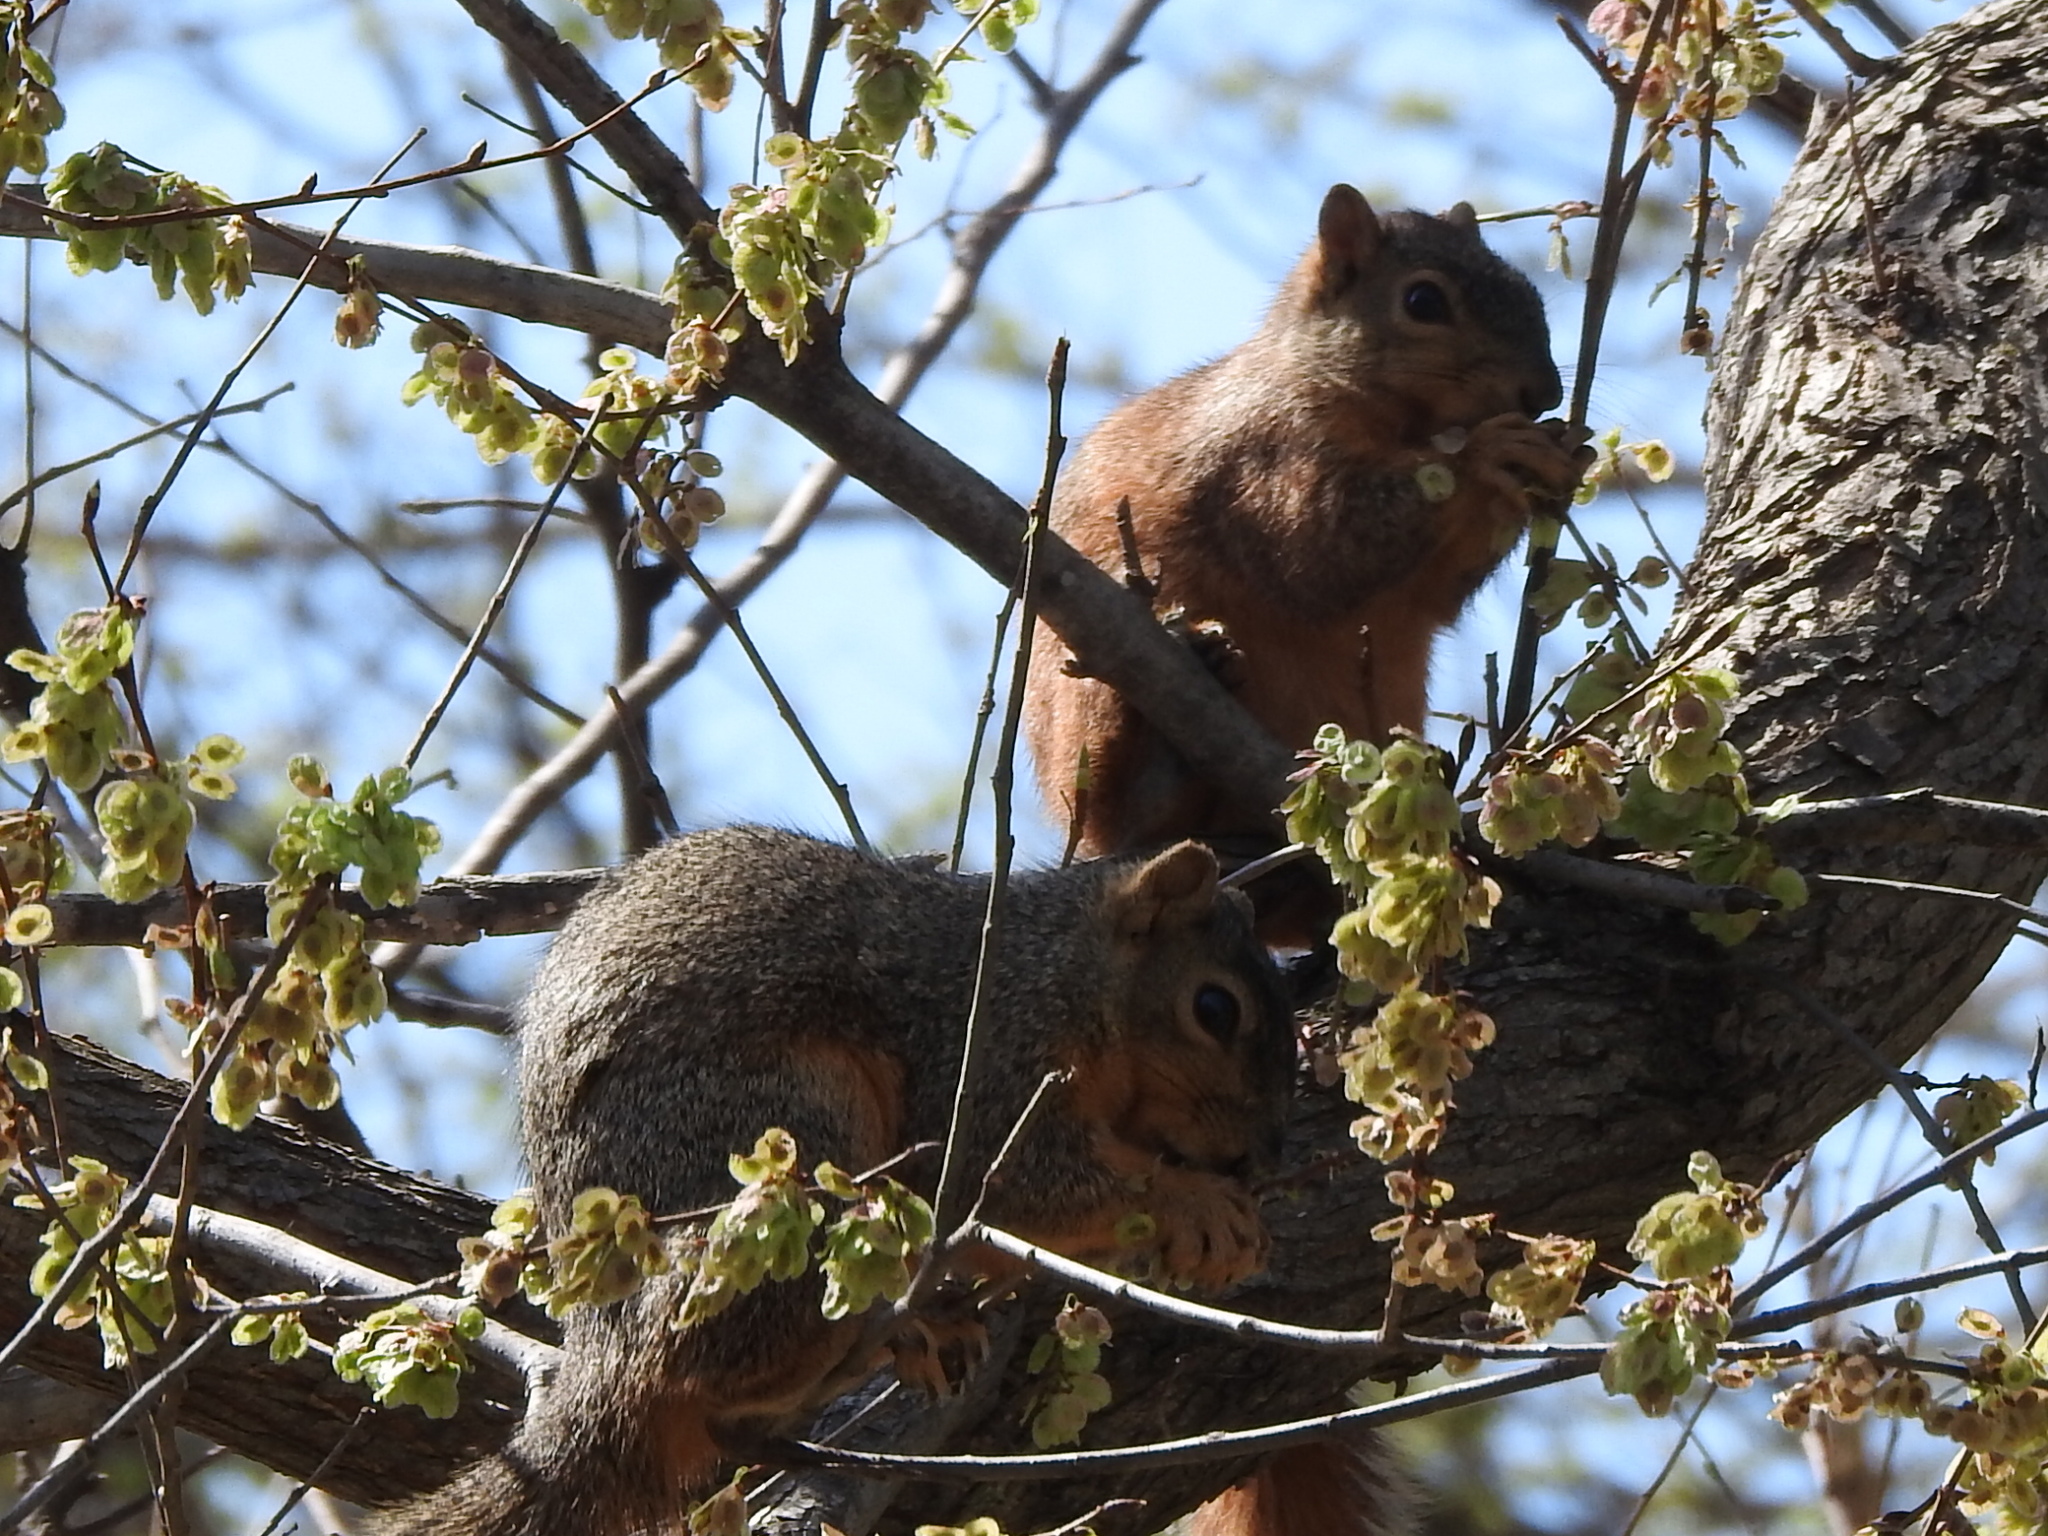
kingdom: Animalia
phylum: Chordata
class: Mammalia
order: Rodentia
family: Sciuridae
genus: Sciurus
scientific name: Sciurus niger
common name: Fox squirrel
